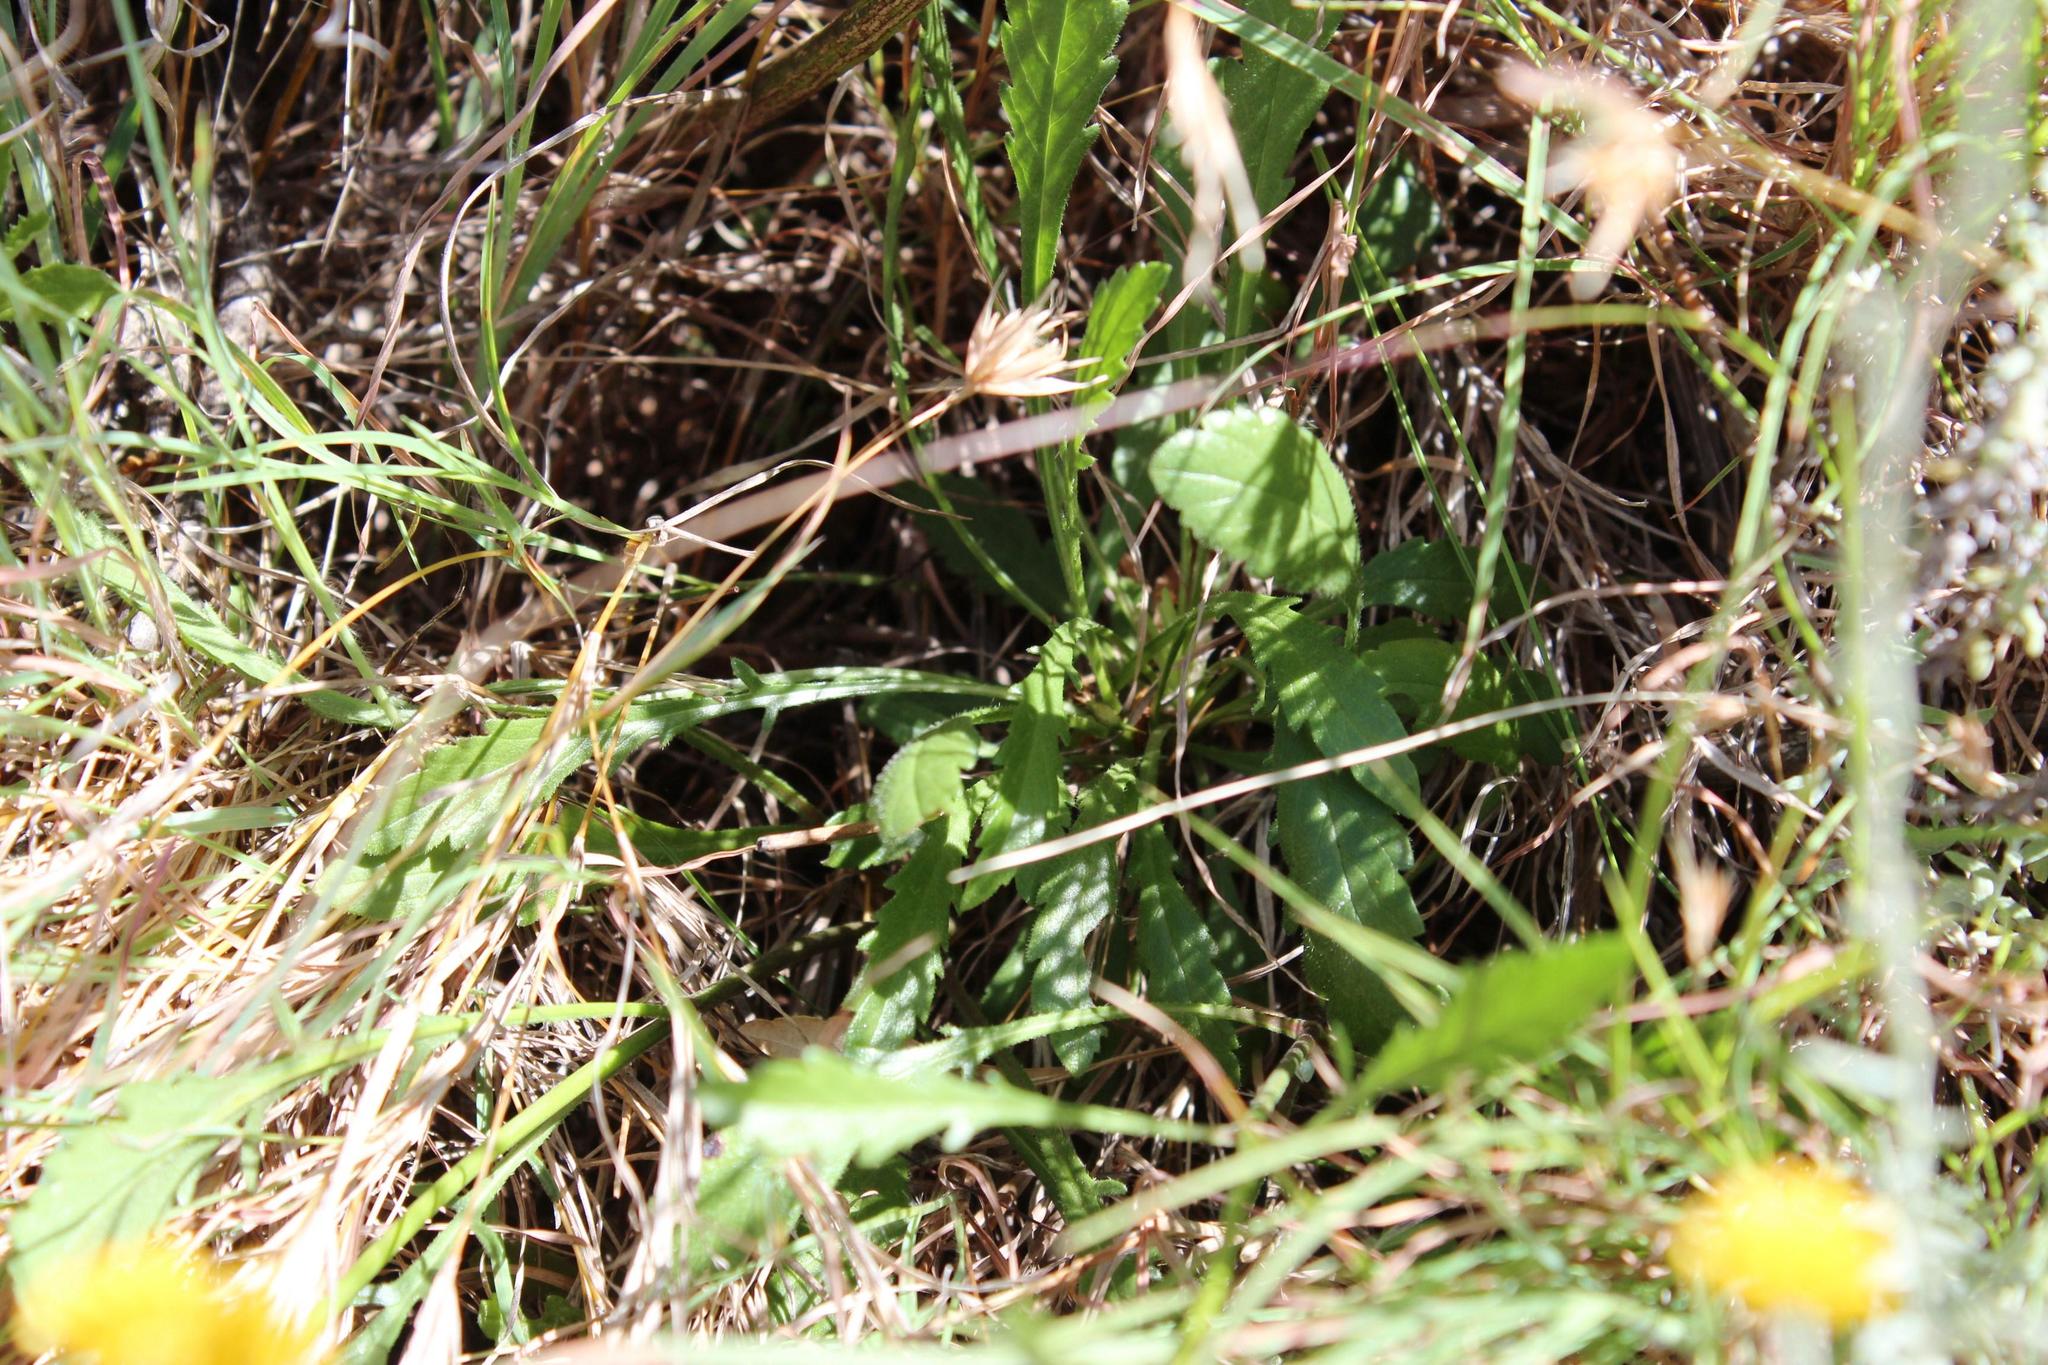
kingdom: Plantae
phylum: Tracheophyta
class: Magnoliopsida
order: Dipsacales
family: Caprifoliaceae
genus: Scabiosa
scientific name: Scabiosa columbaria
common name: Small scabious
